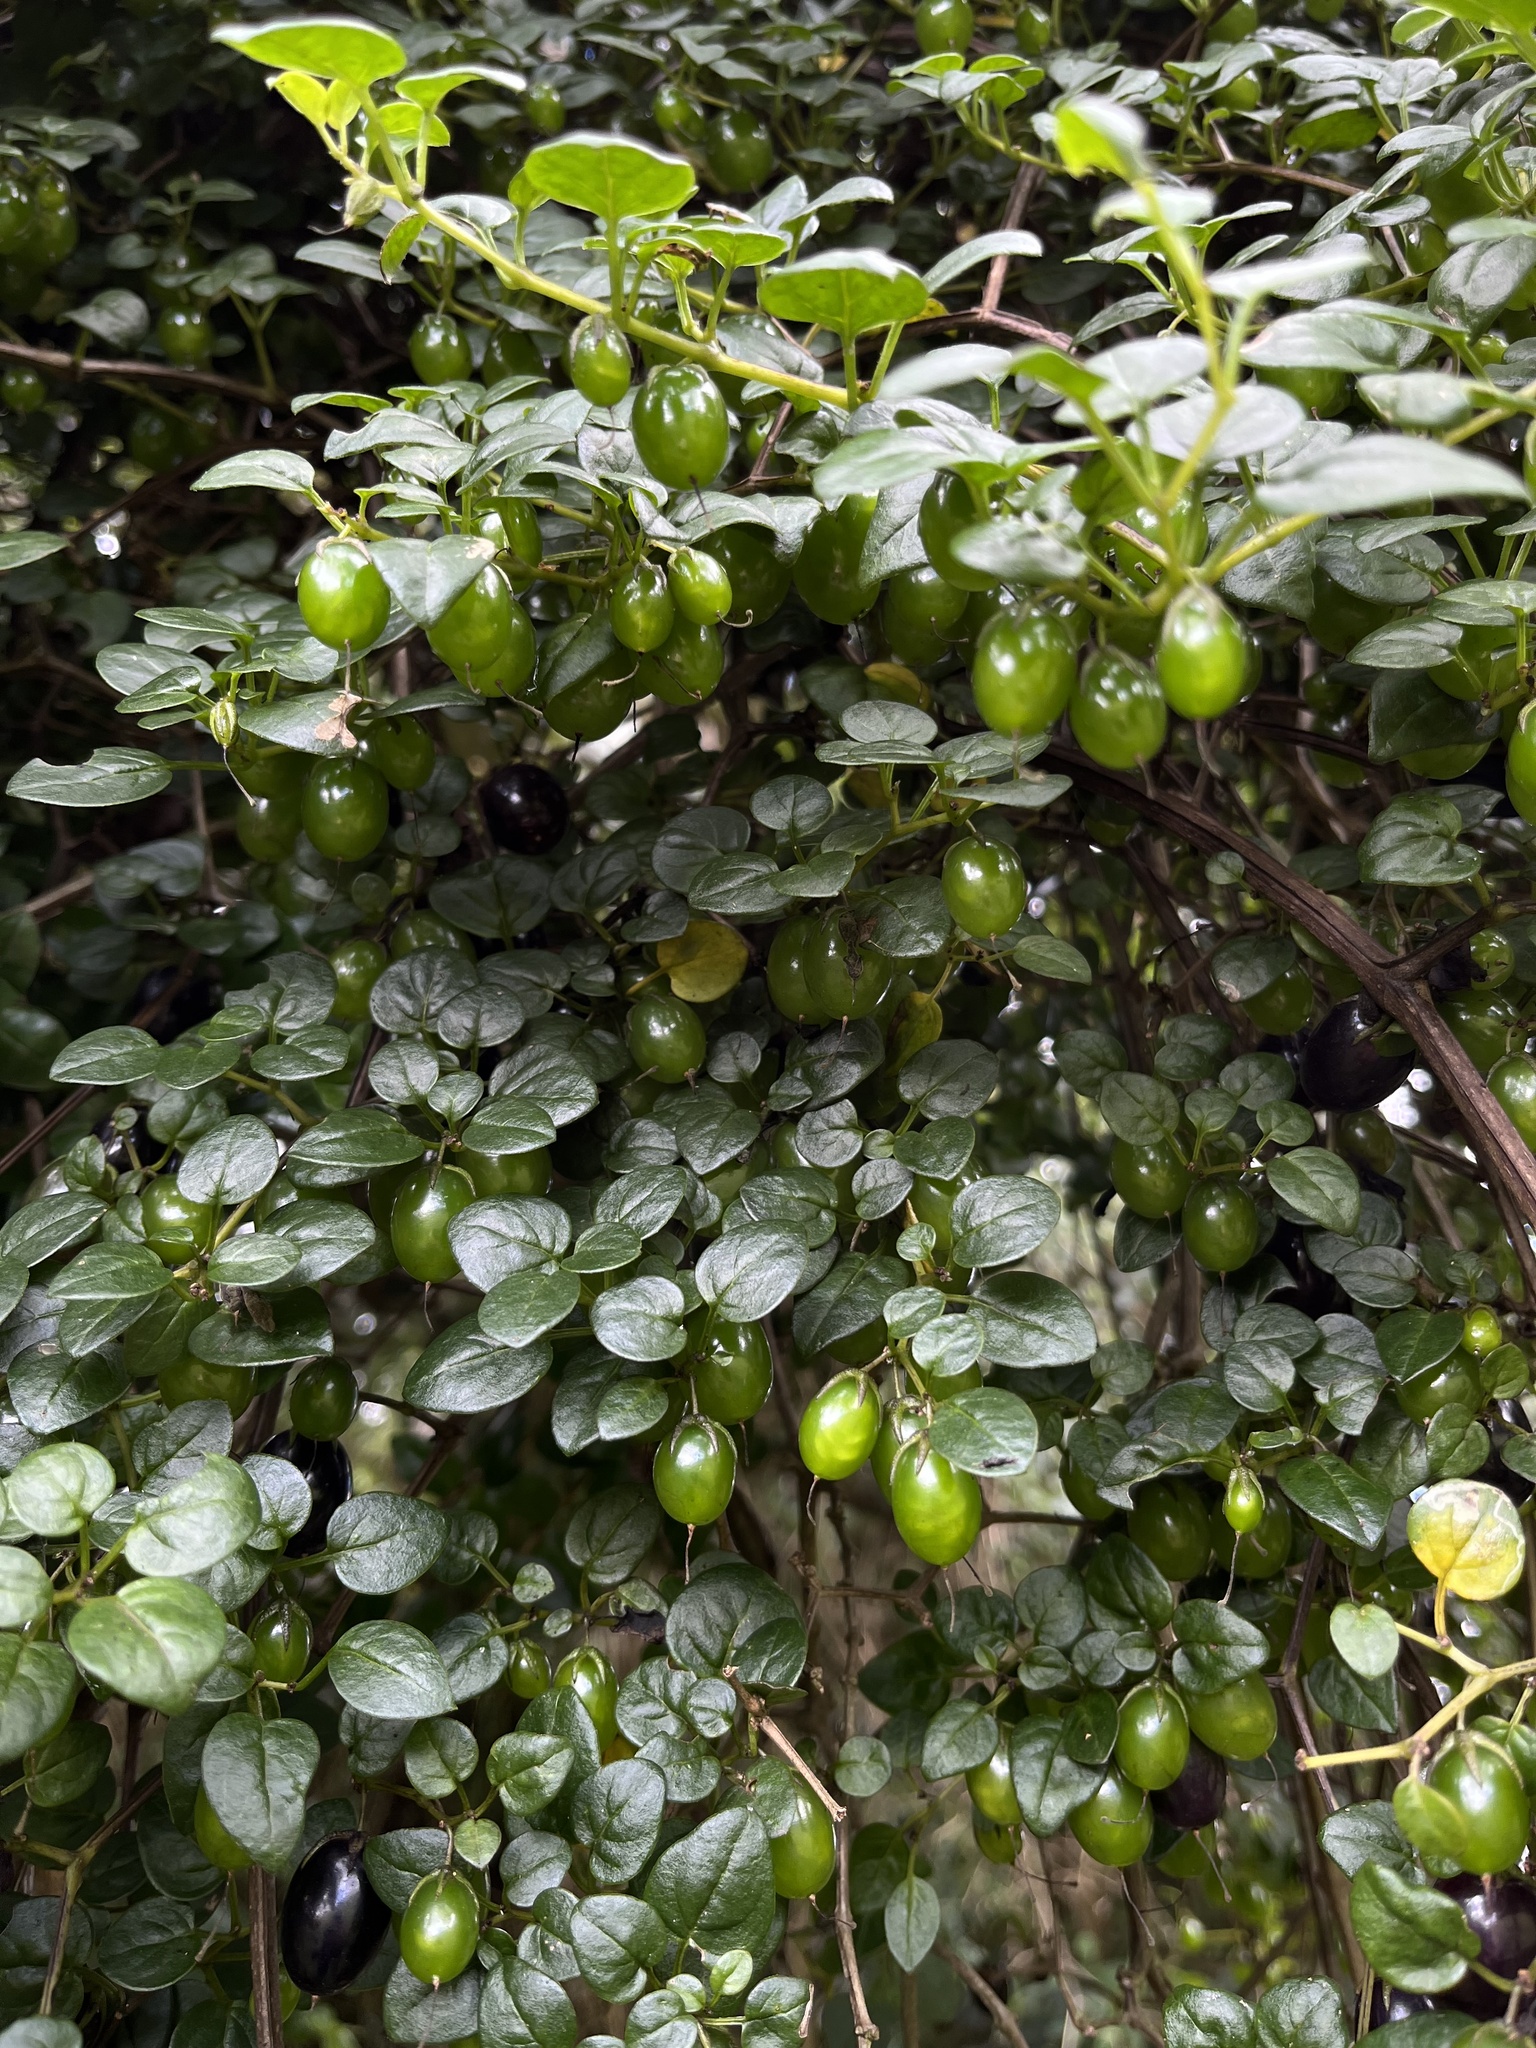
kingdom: Plantae
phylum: Tracheophyta
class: Magnoliopsida
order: Solanales
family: Solanaceae
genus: Salpichroa
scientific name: Salpichroa tristis
